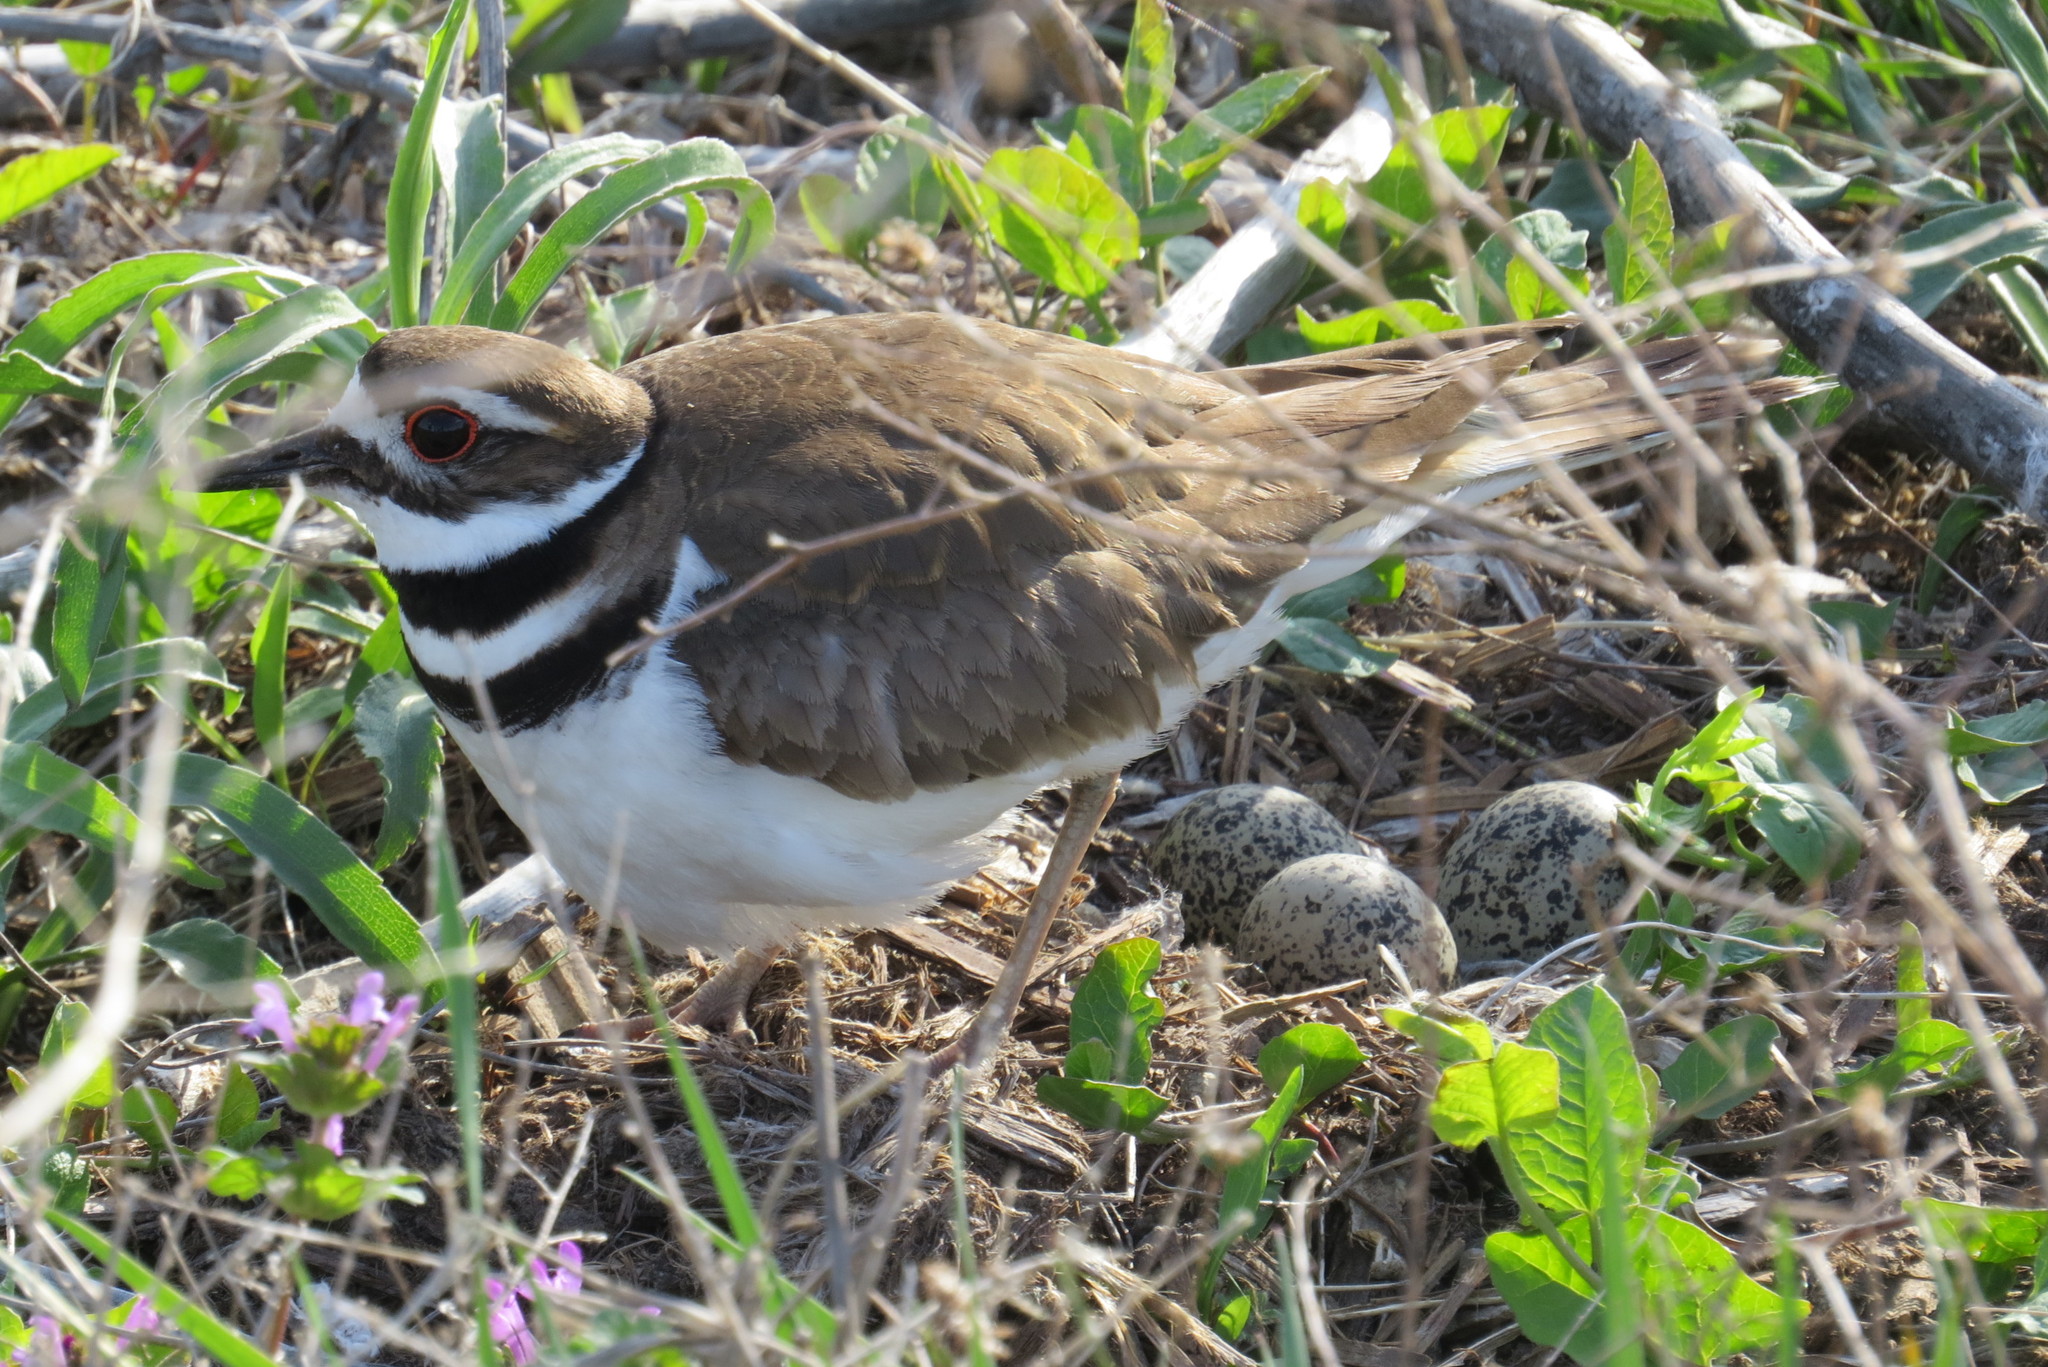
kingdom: Animalia
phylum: Chordata
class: Aves
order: Charadriiformes
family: Charadriidae
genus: Charadrius
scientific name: Charadrius vociferus
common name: Killdeer
